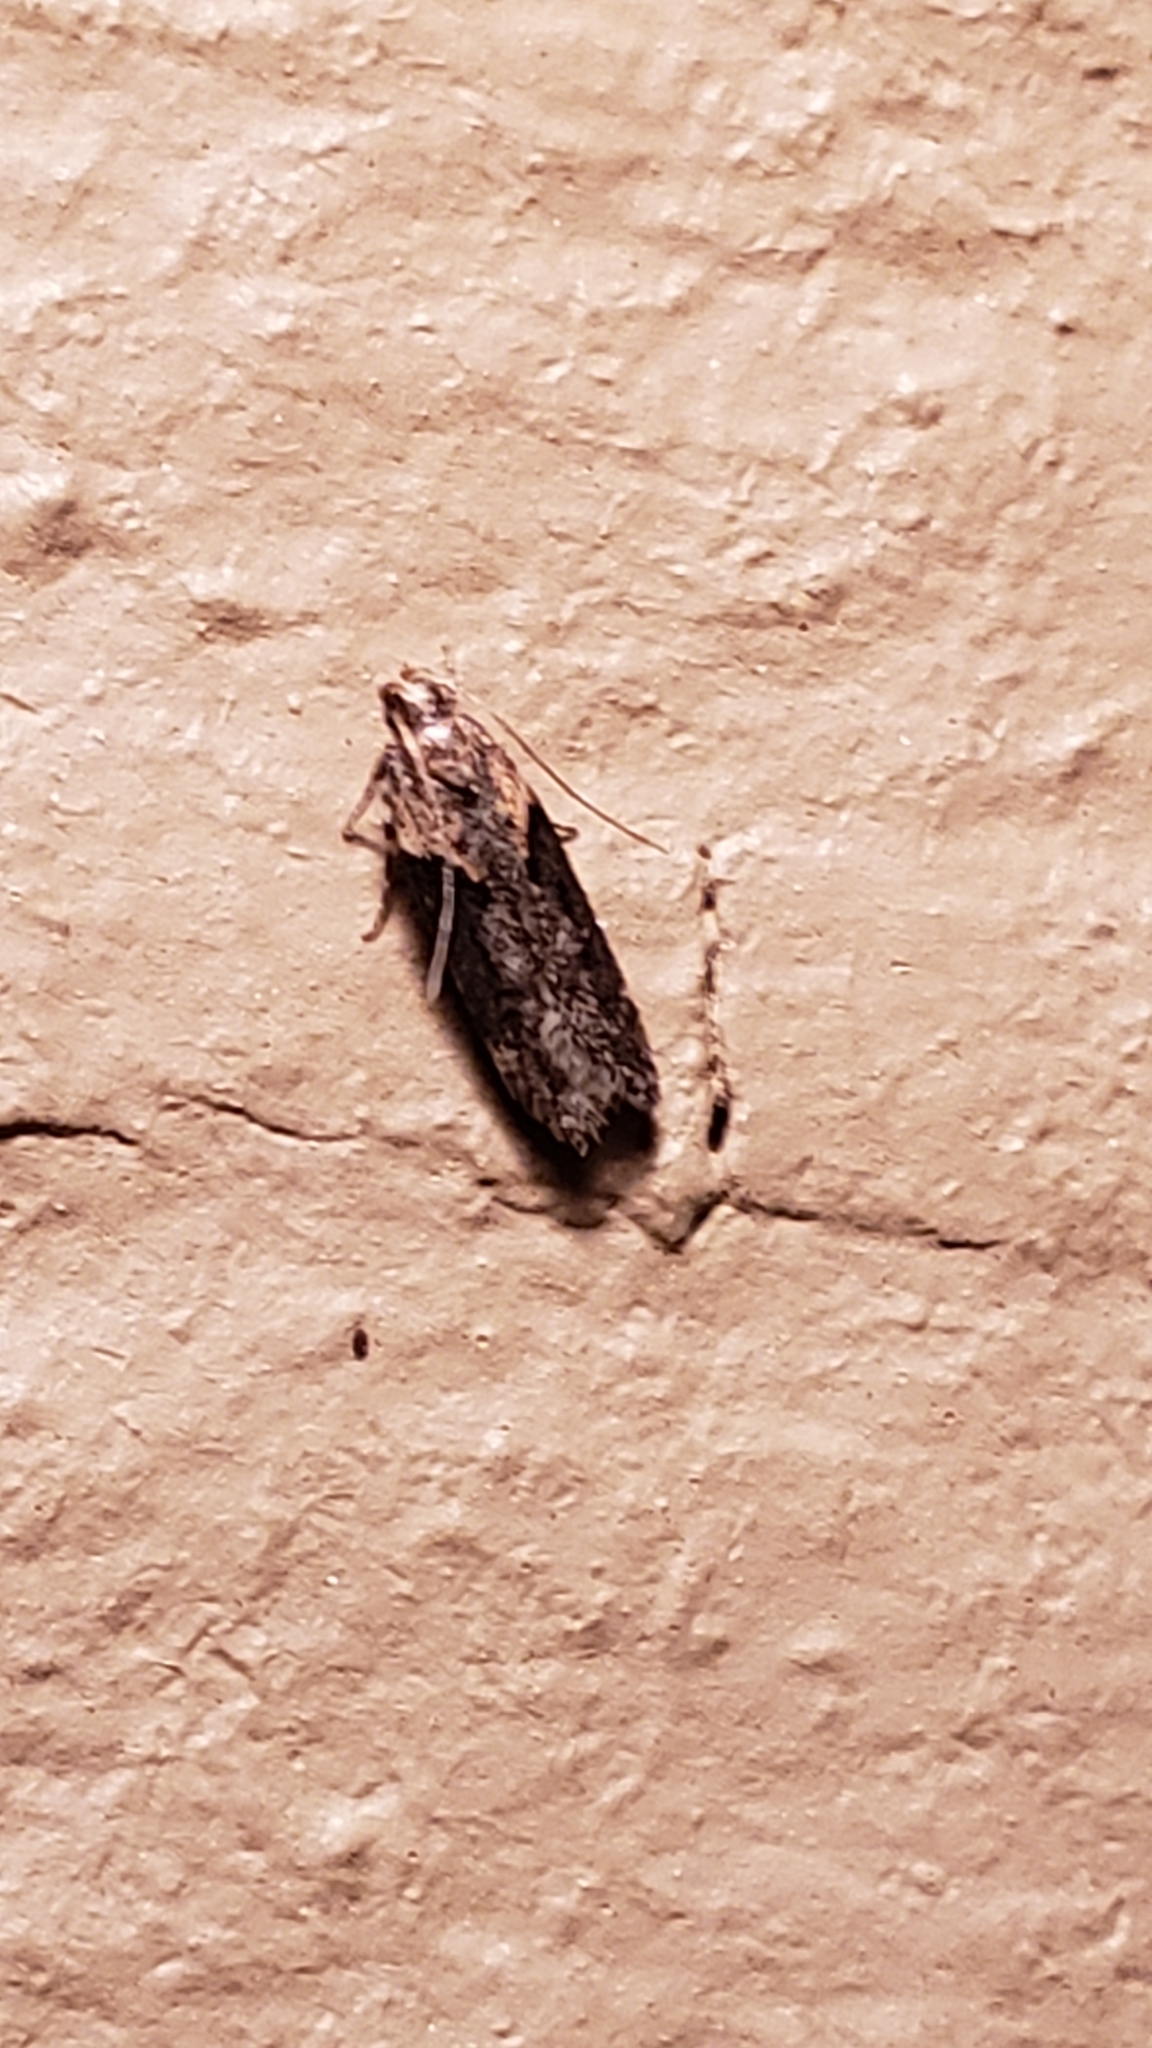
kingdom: Animalia
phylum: Arthropoda
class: Insecta
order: Lepidoptera
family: Gelechiidae
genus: Chionodes
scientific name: Chionodes mediofuscella
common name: Black-smudged chionodes moth
